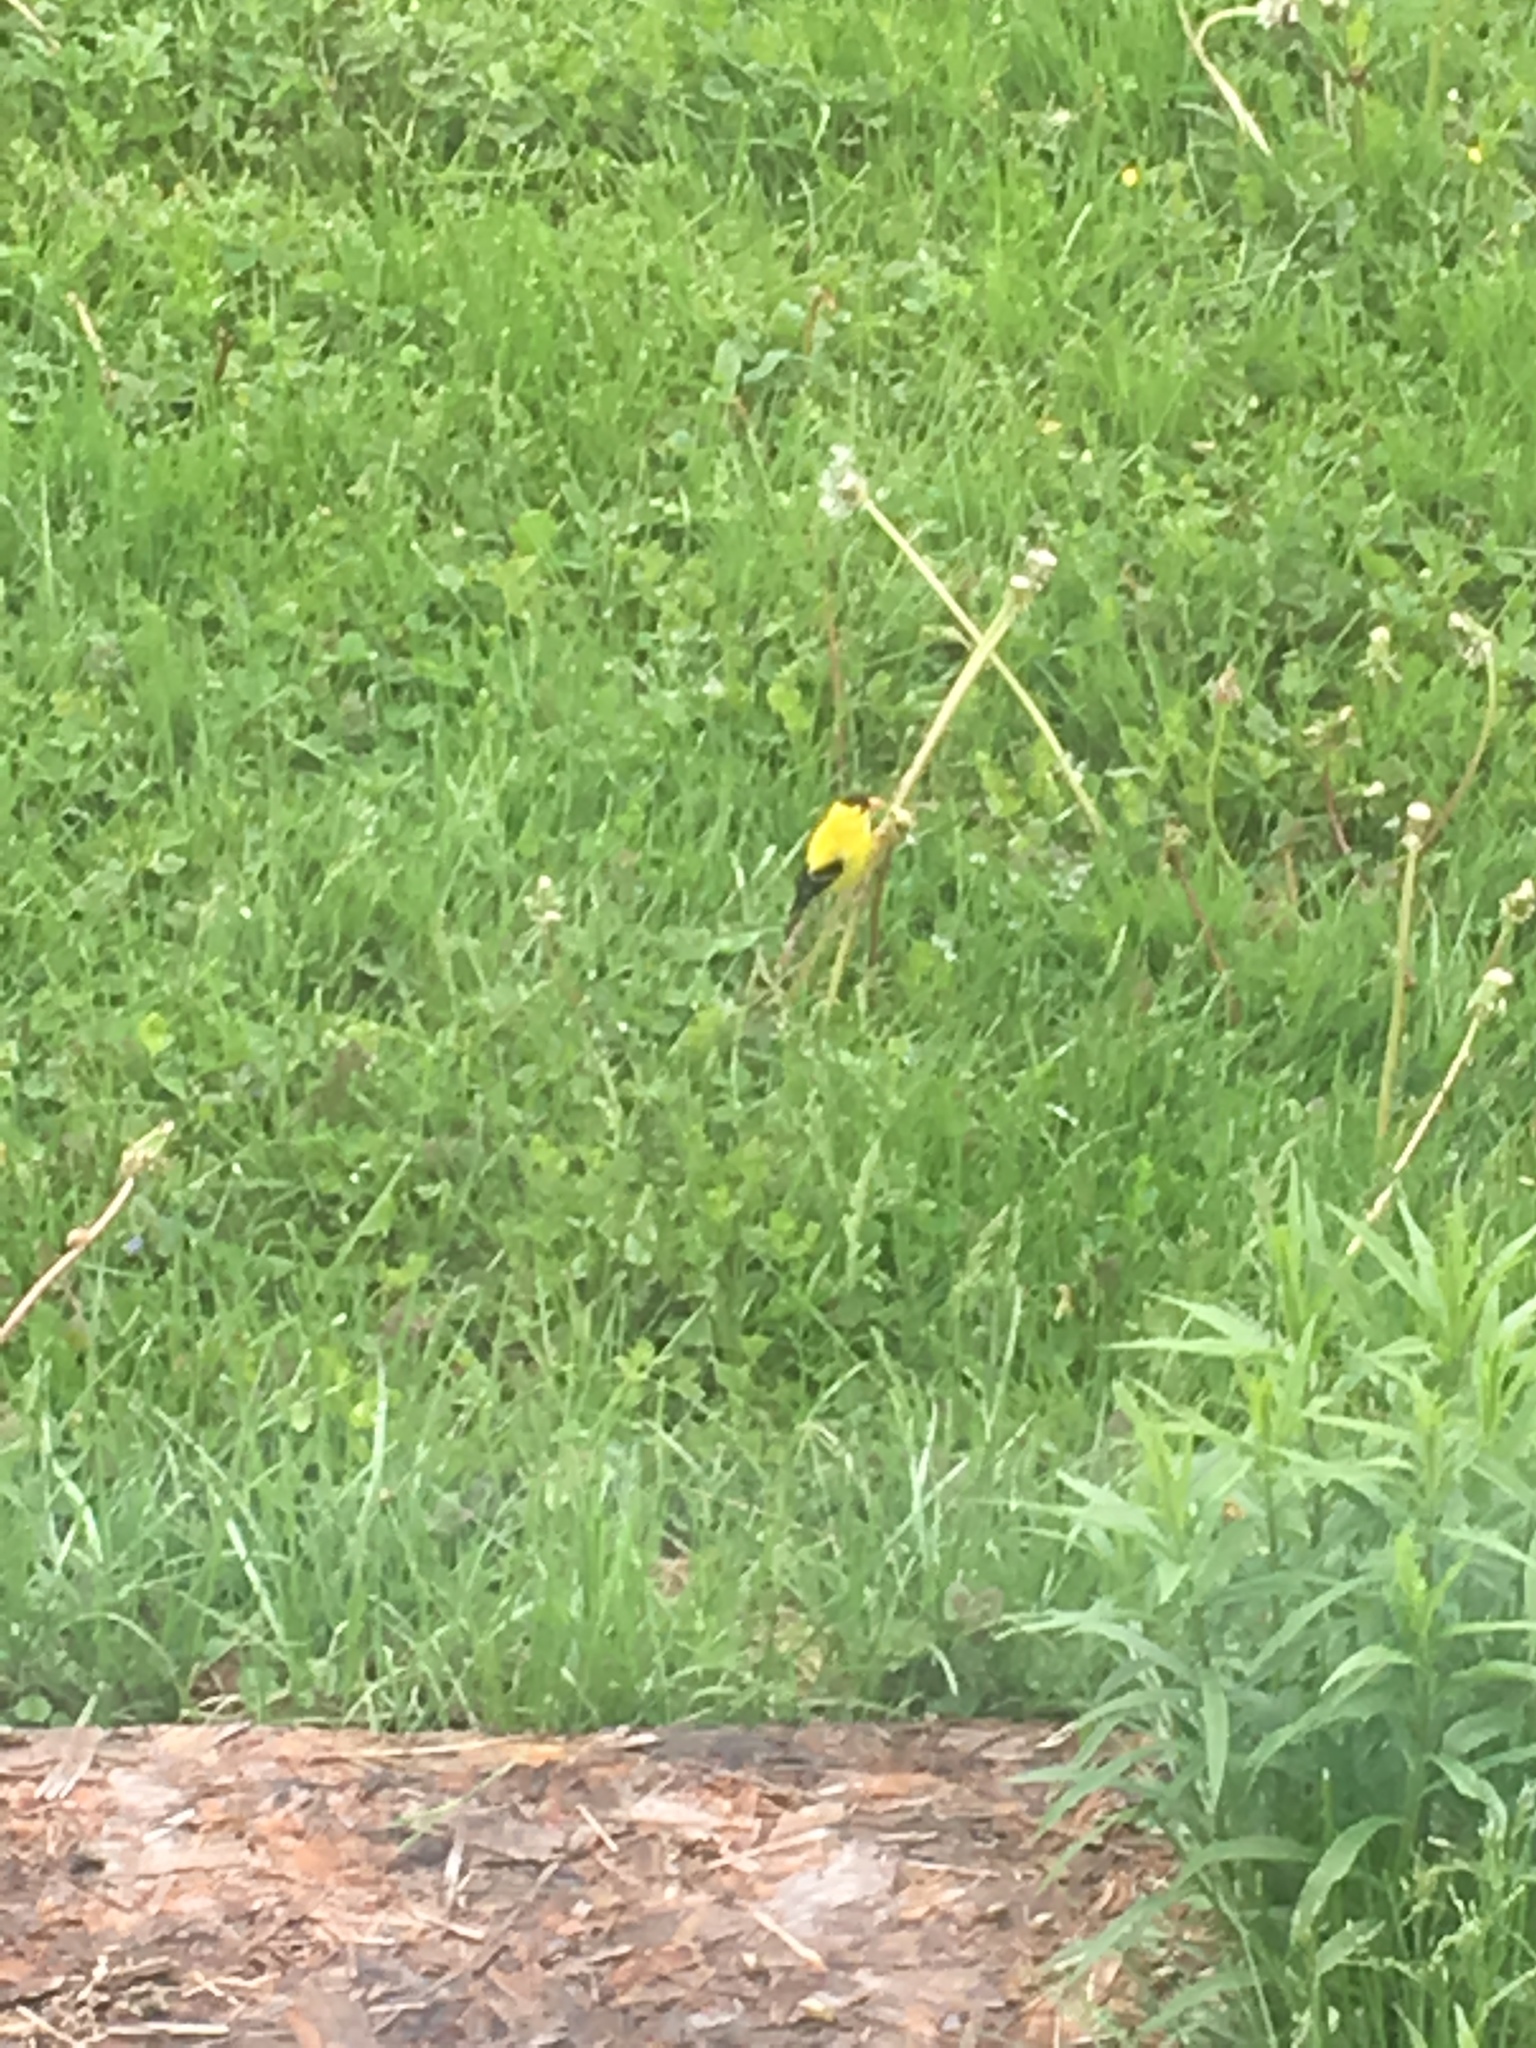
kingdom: Animalia
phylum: Chordata
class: Aves
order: Passeriformes
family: Fringillidae
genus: Spinus
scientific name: Spinus tristis
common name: American goldfinch
